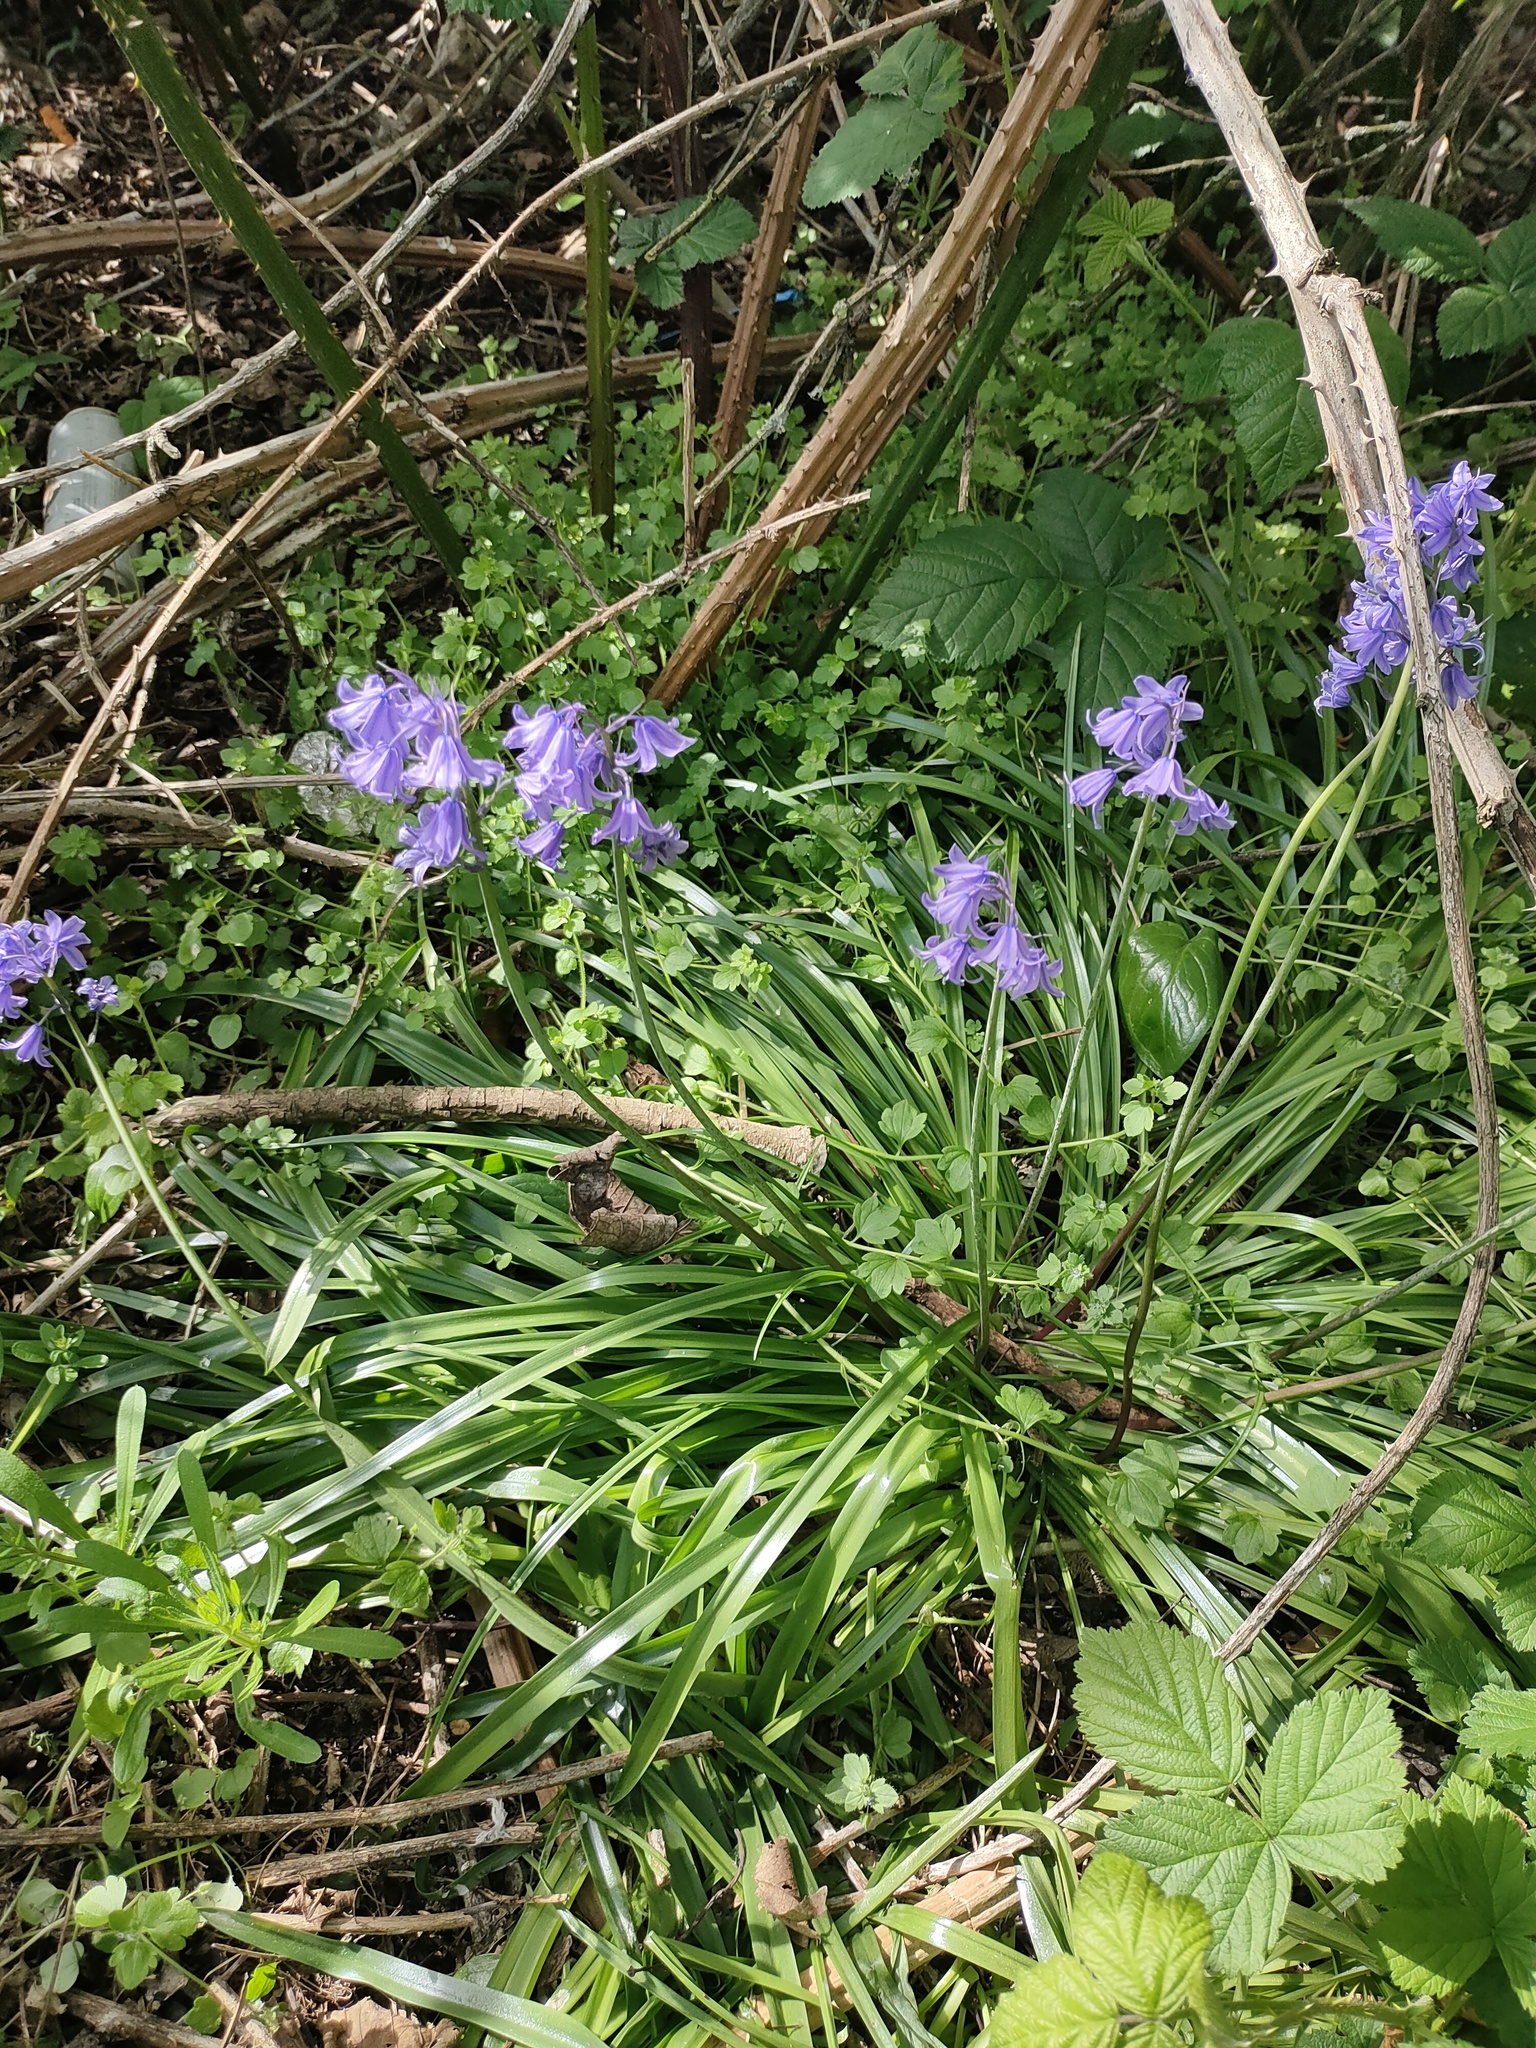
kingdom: Plantae
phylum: Tracheophyta
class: Liliopsida
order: Asparagales
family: Asparagaceae
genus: Hyacinthoides
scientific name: Hyacinthoides massartiana
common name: Hyacinthoides
